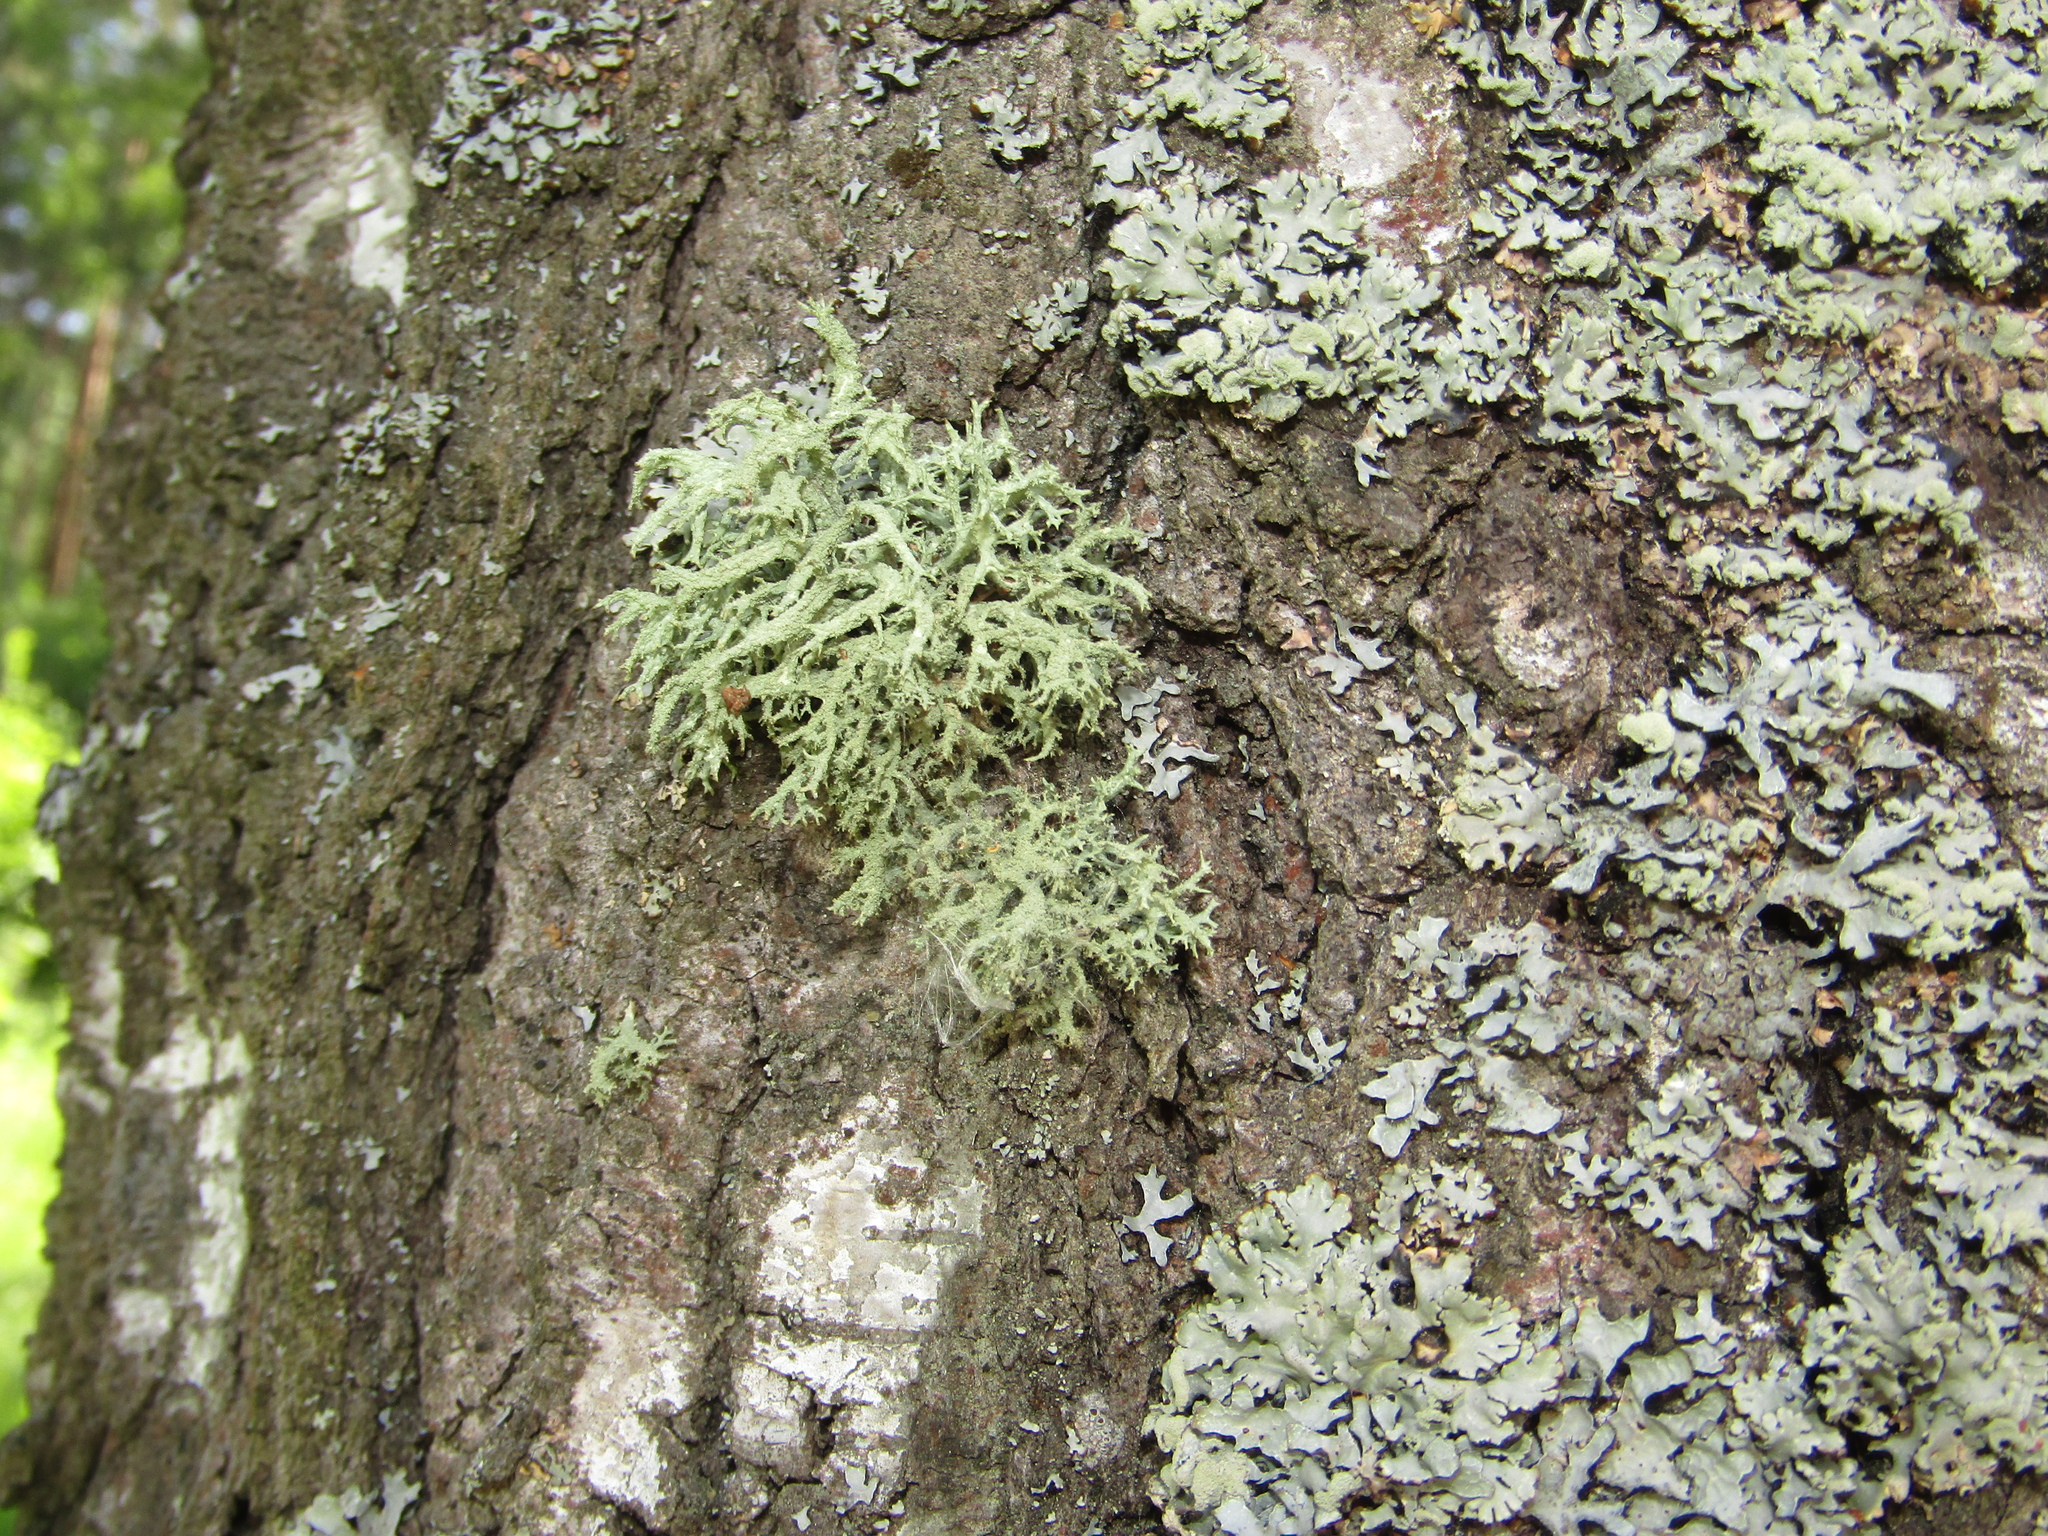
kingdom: Fungi
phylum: Ascomycota
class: Lecanoromycetes
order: Lecanorales
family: Parmeliaceae
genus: Evernia
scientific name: Evernia mesomorpha
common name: Boreal oak moss lichen
